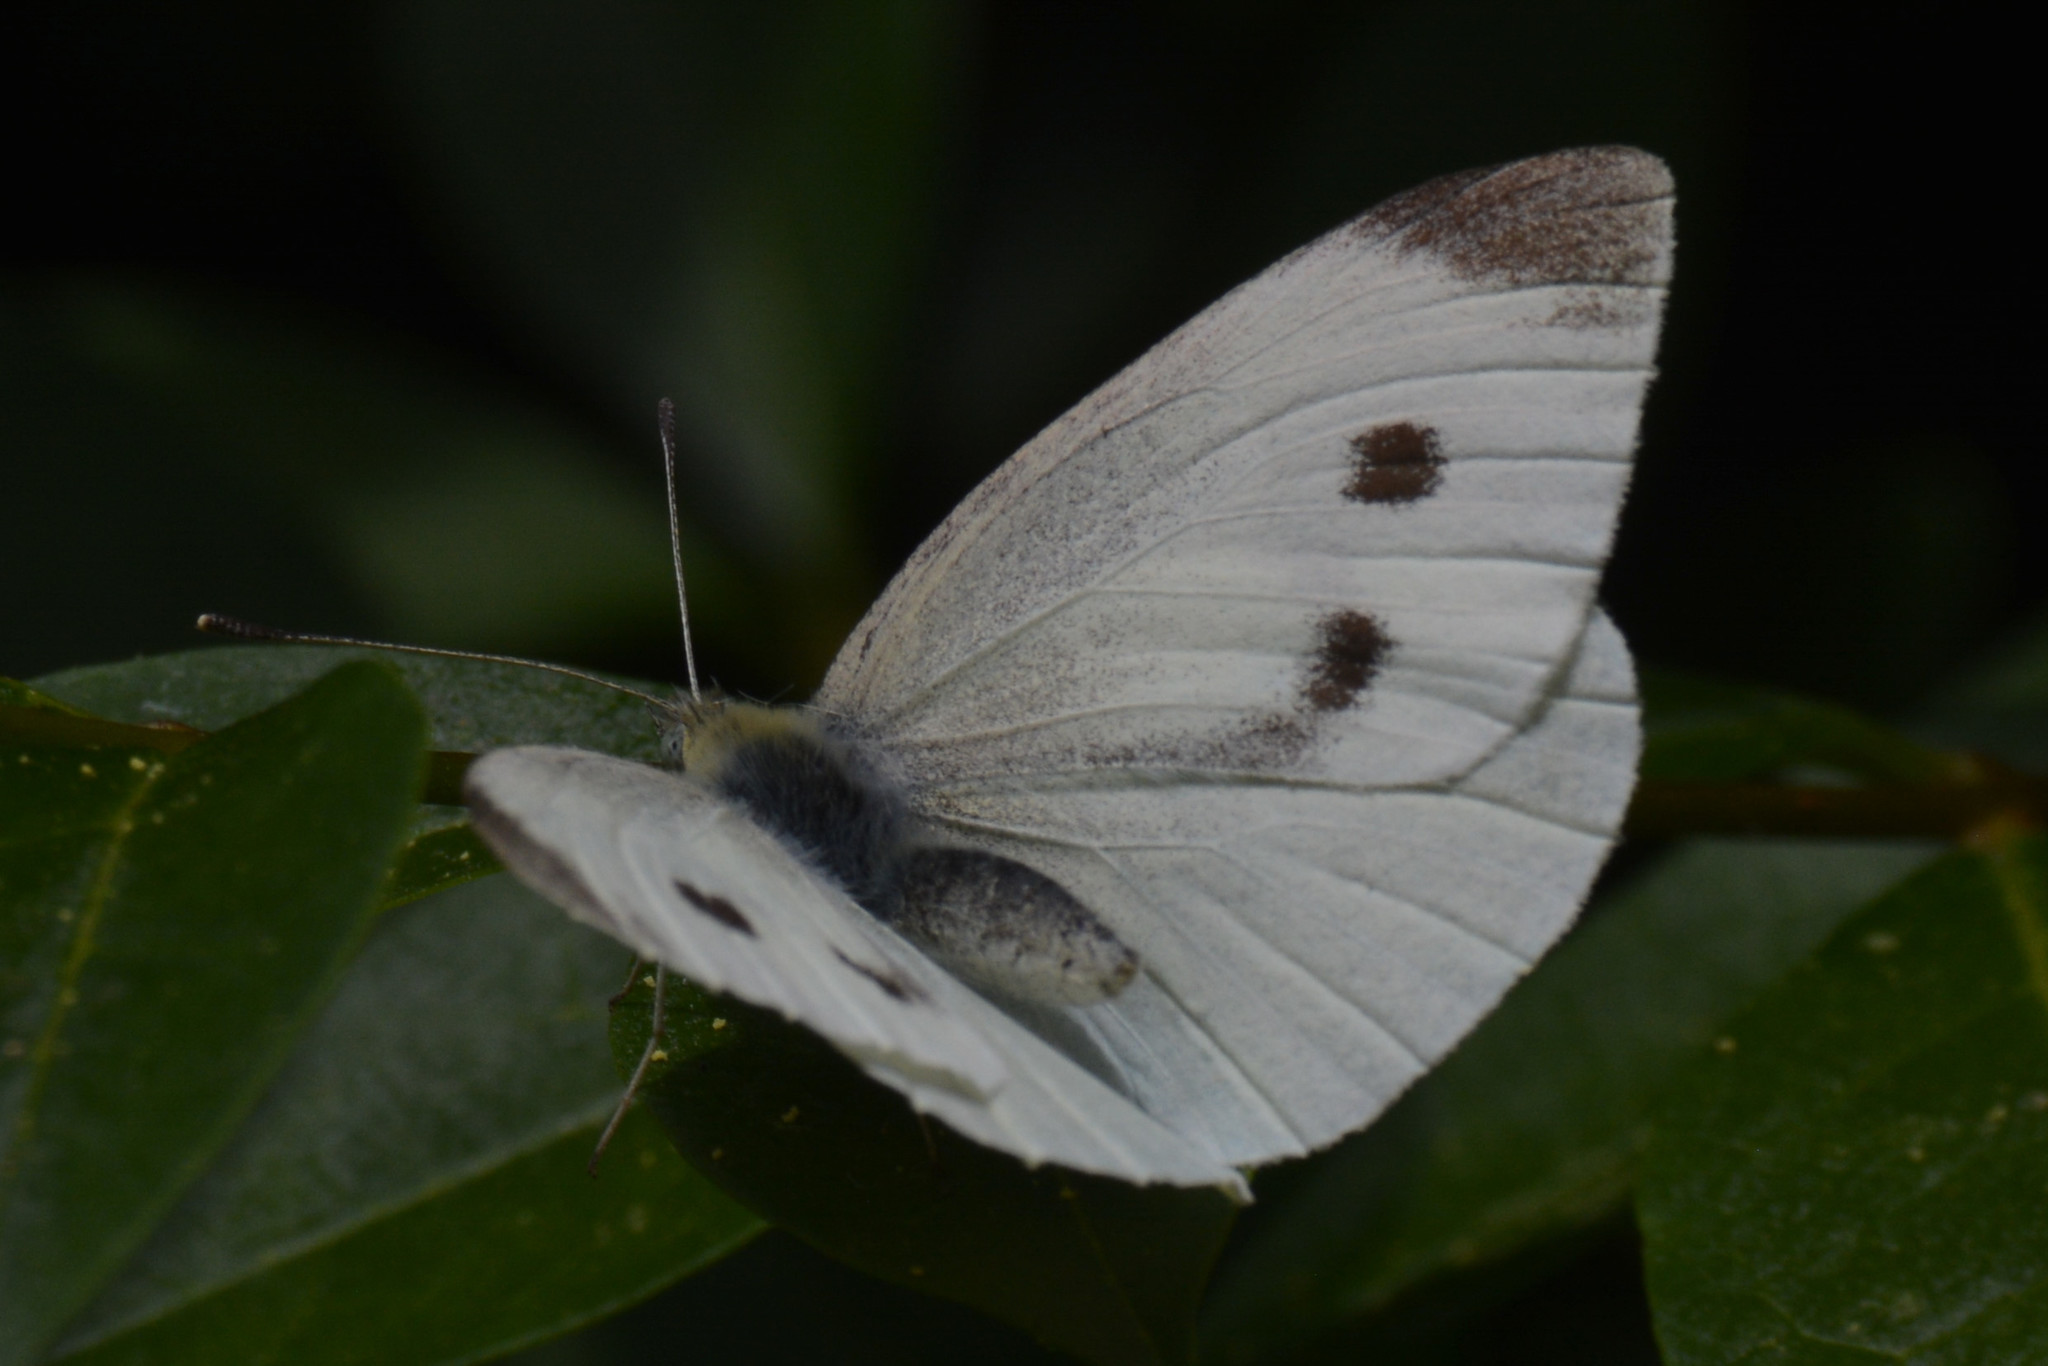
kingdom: Animalia
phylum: Arthropoda
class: Insecta
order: Lepidoptera
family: Pieridae
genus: Pieris
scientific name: Pieris rapae
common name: Small white
